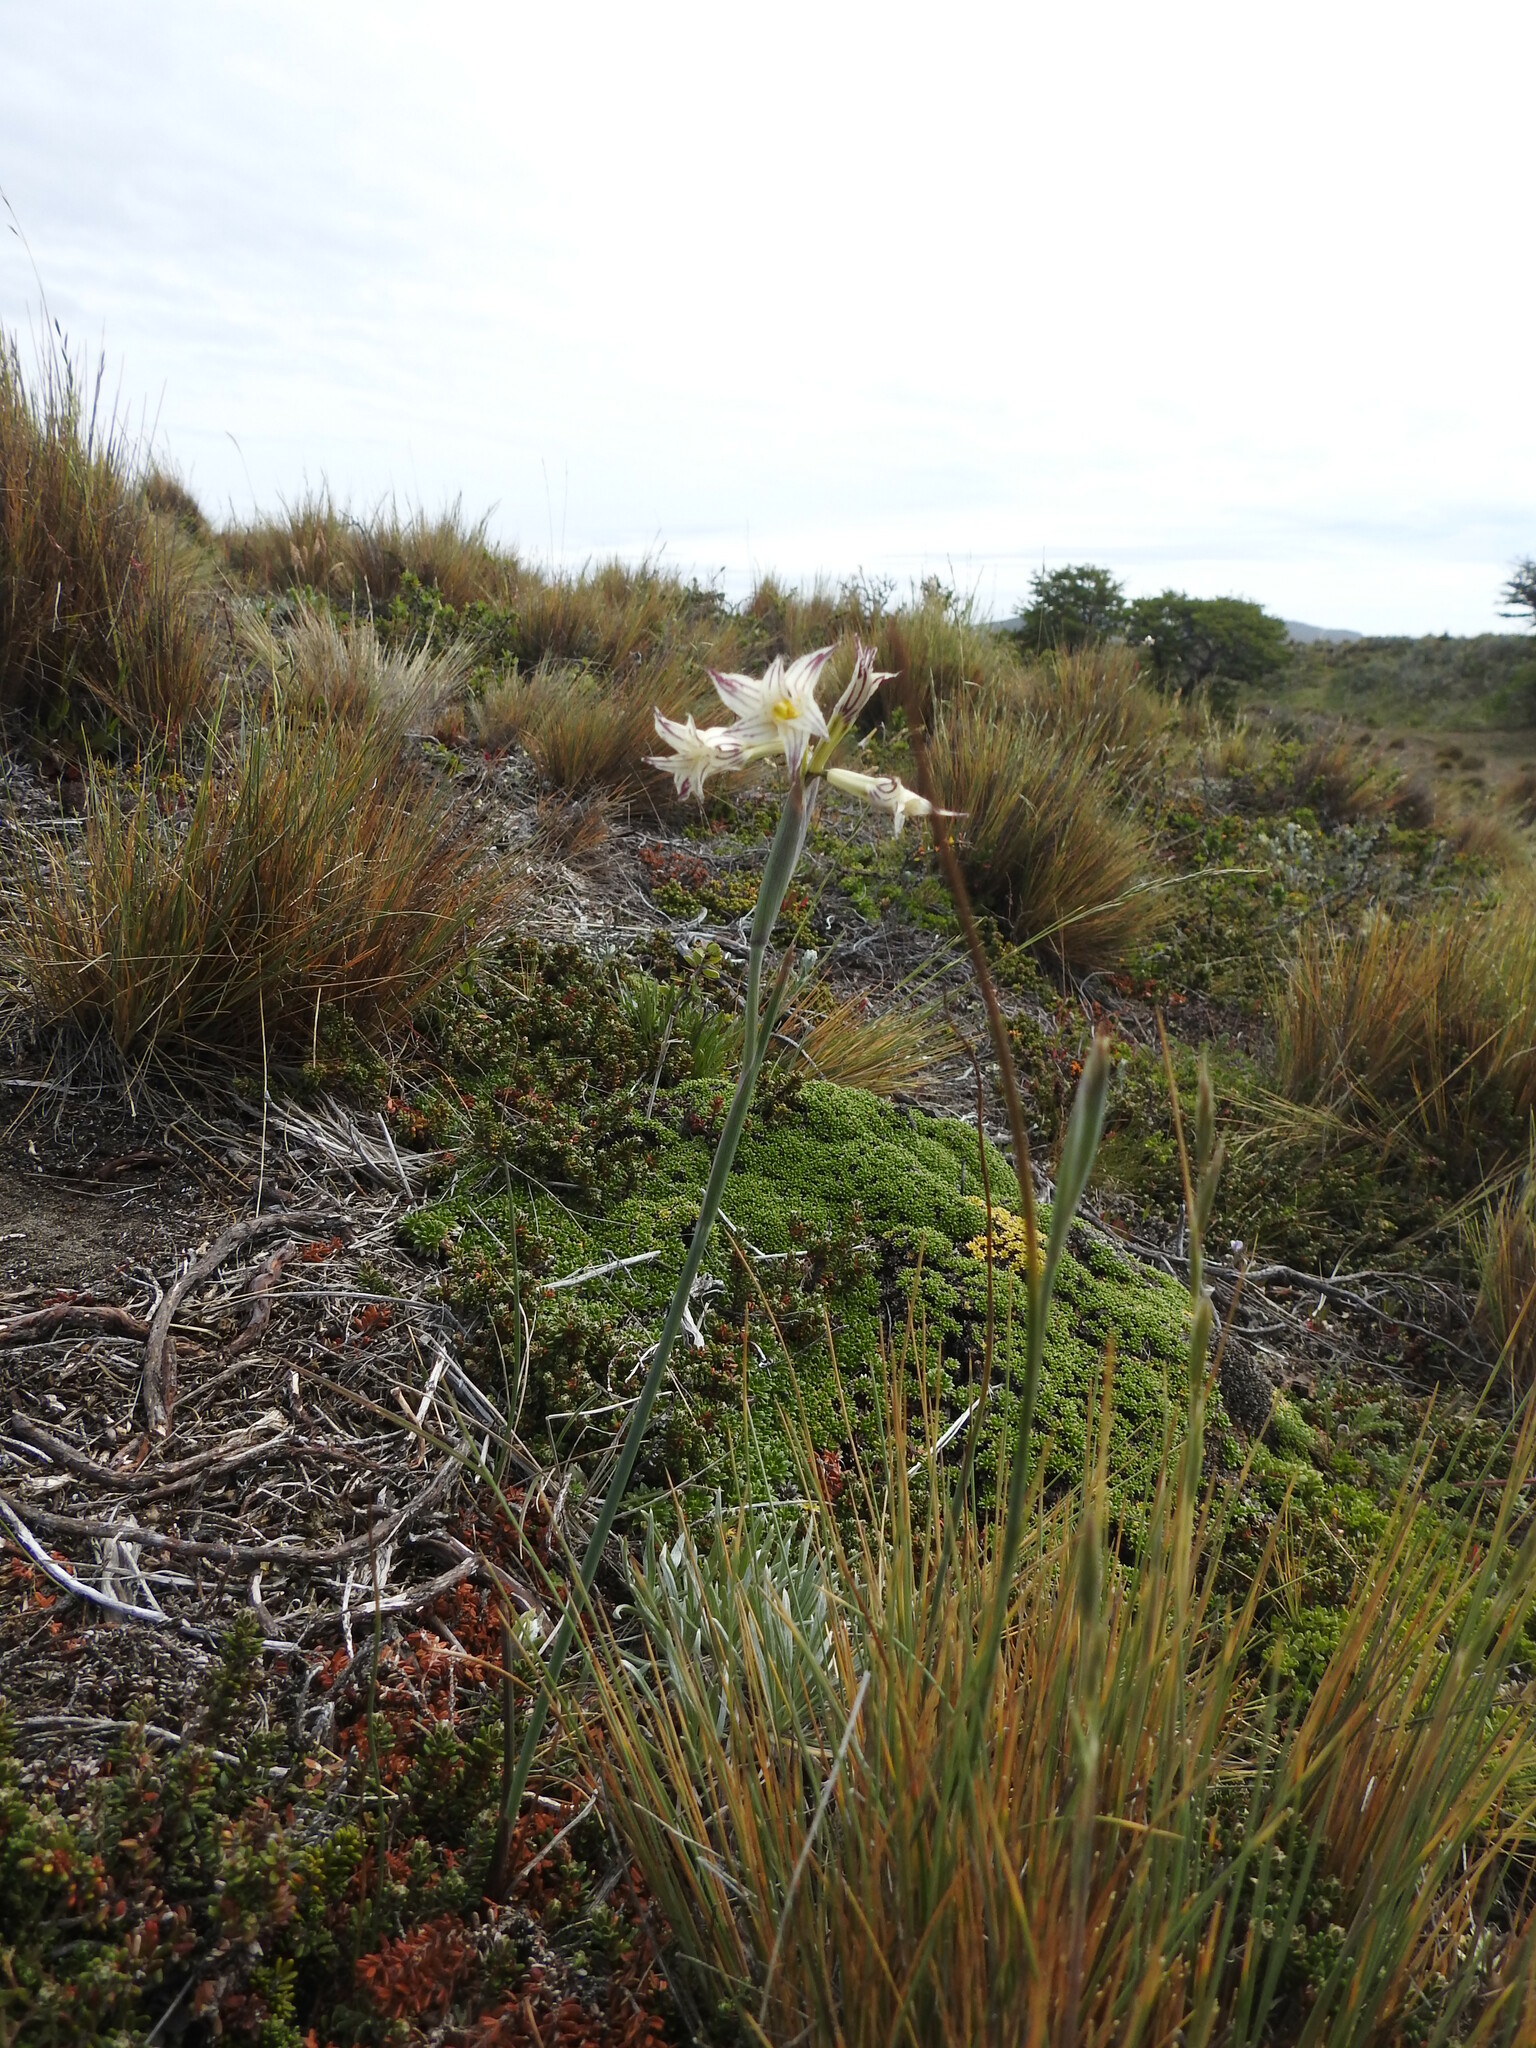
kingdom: Plantae
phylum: Tracheophyta
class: Liliopsida
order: Asparagales
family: Iridaceae
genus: Olsynium
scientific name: Olsynium biflorum
